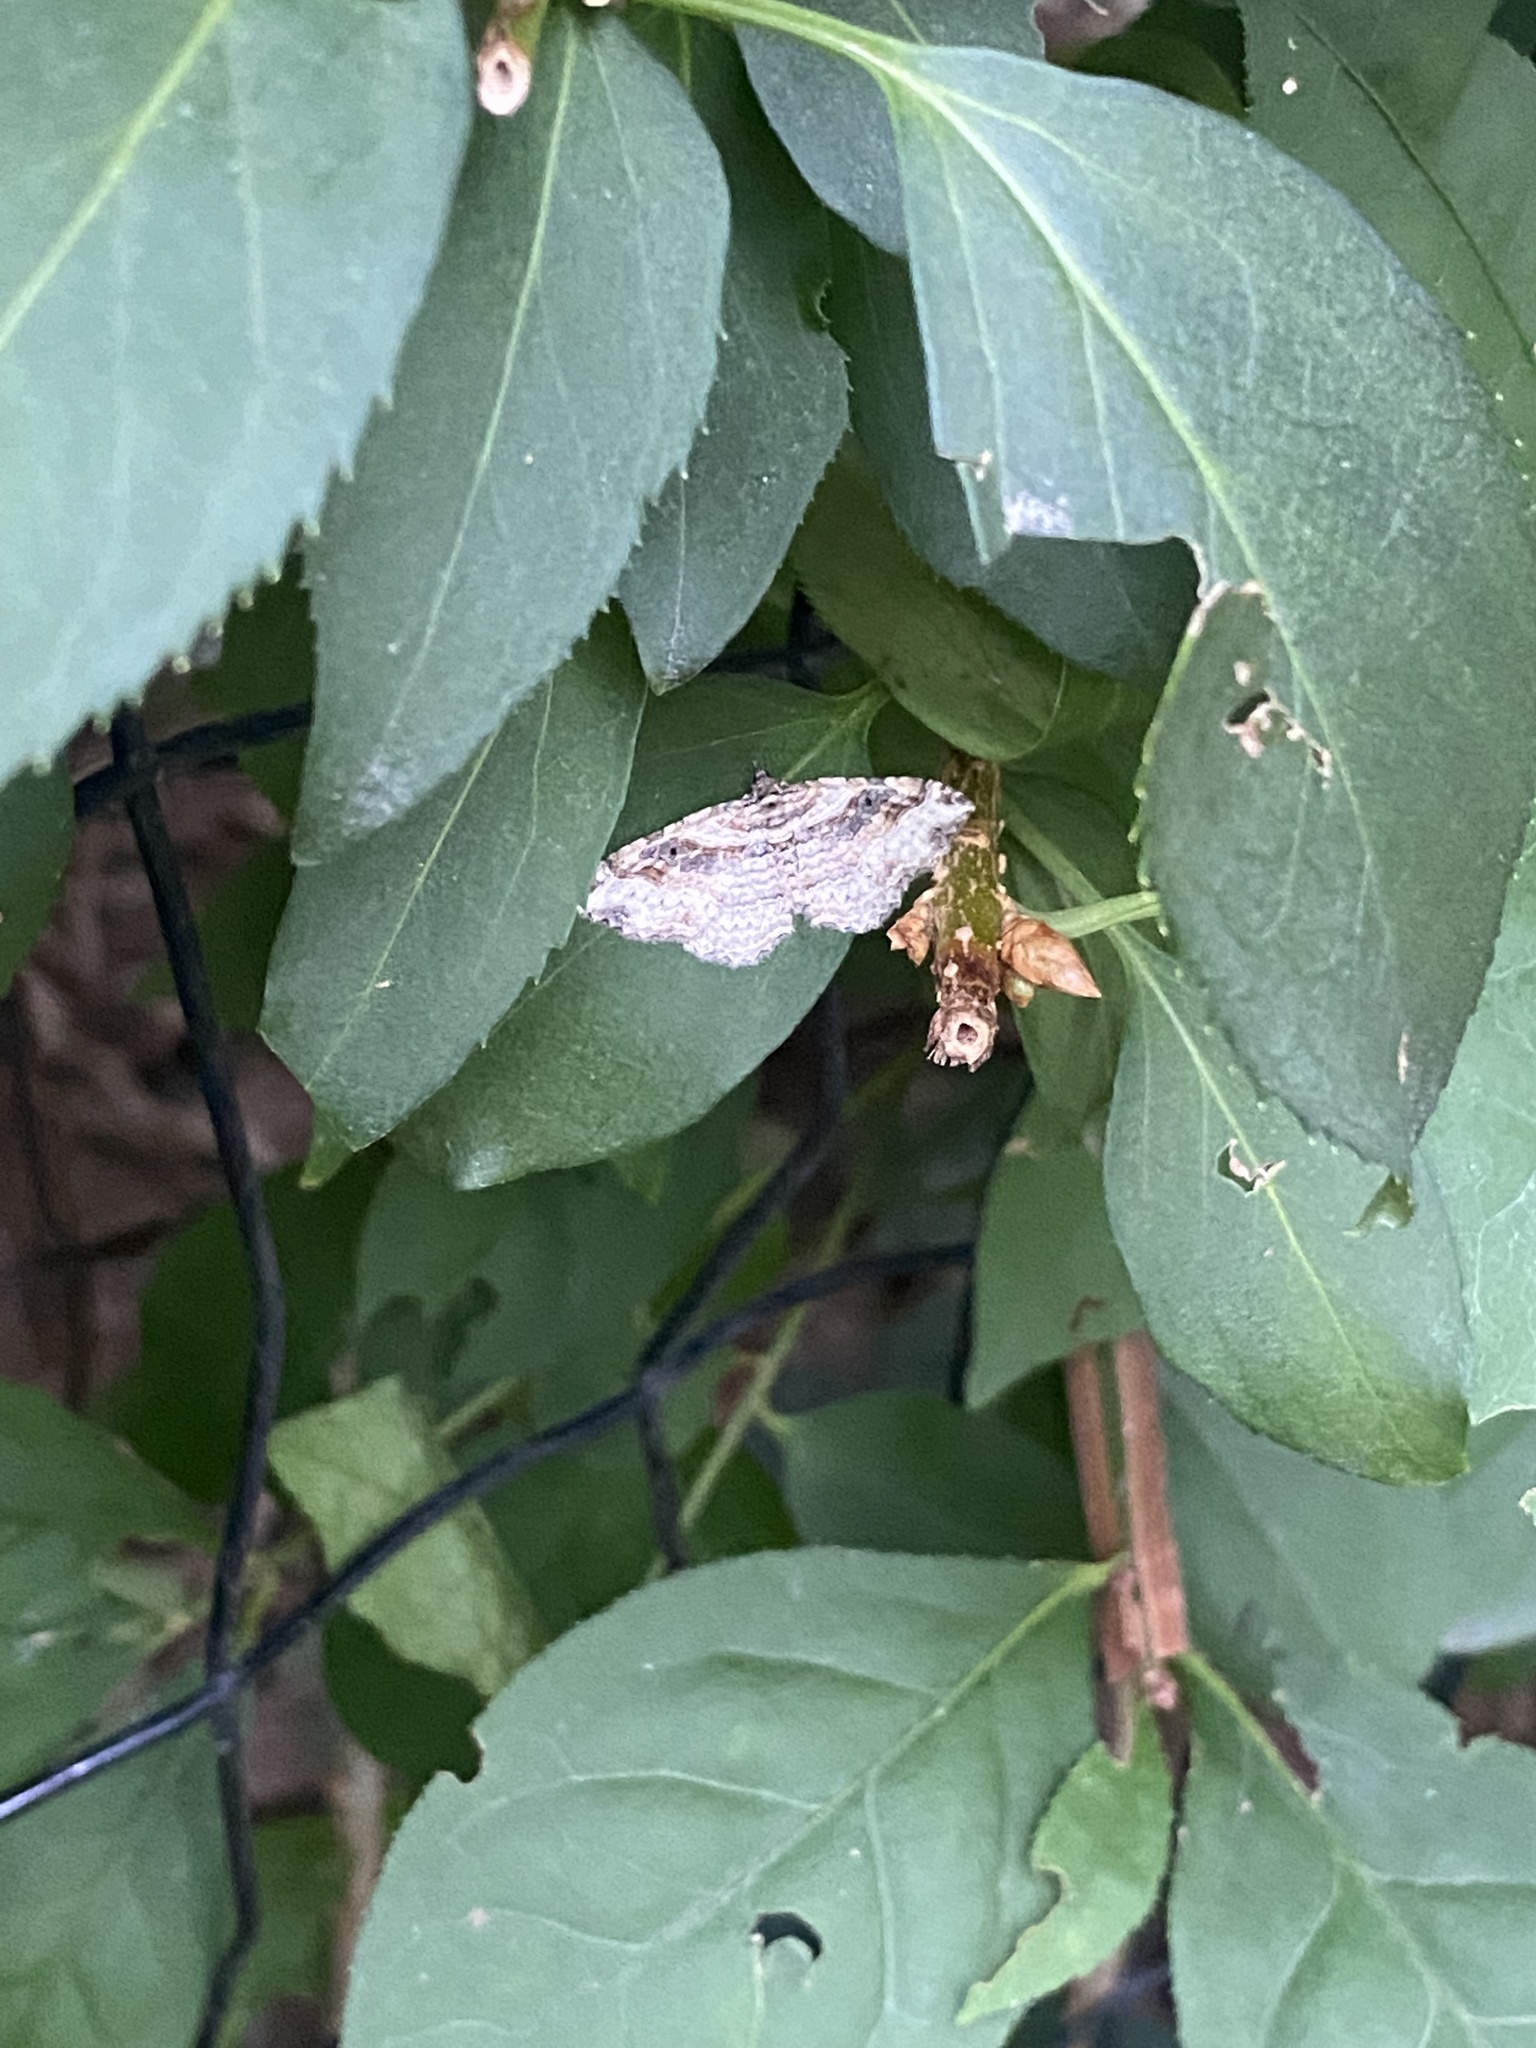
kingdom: Animalia
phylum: Arthropoda
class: Insecta
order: Lepidoptera
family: Geometridae
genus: Costaconvexa
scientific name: Costaconvexa centrostrigaria
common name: Bent-line carpet
